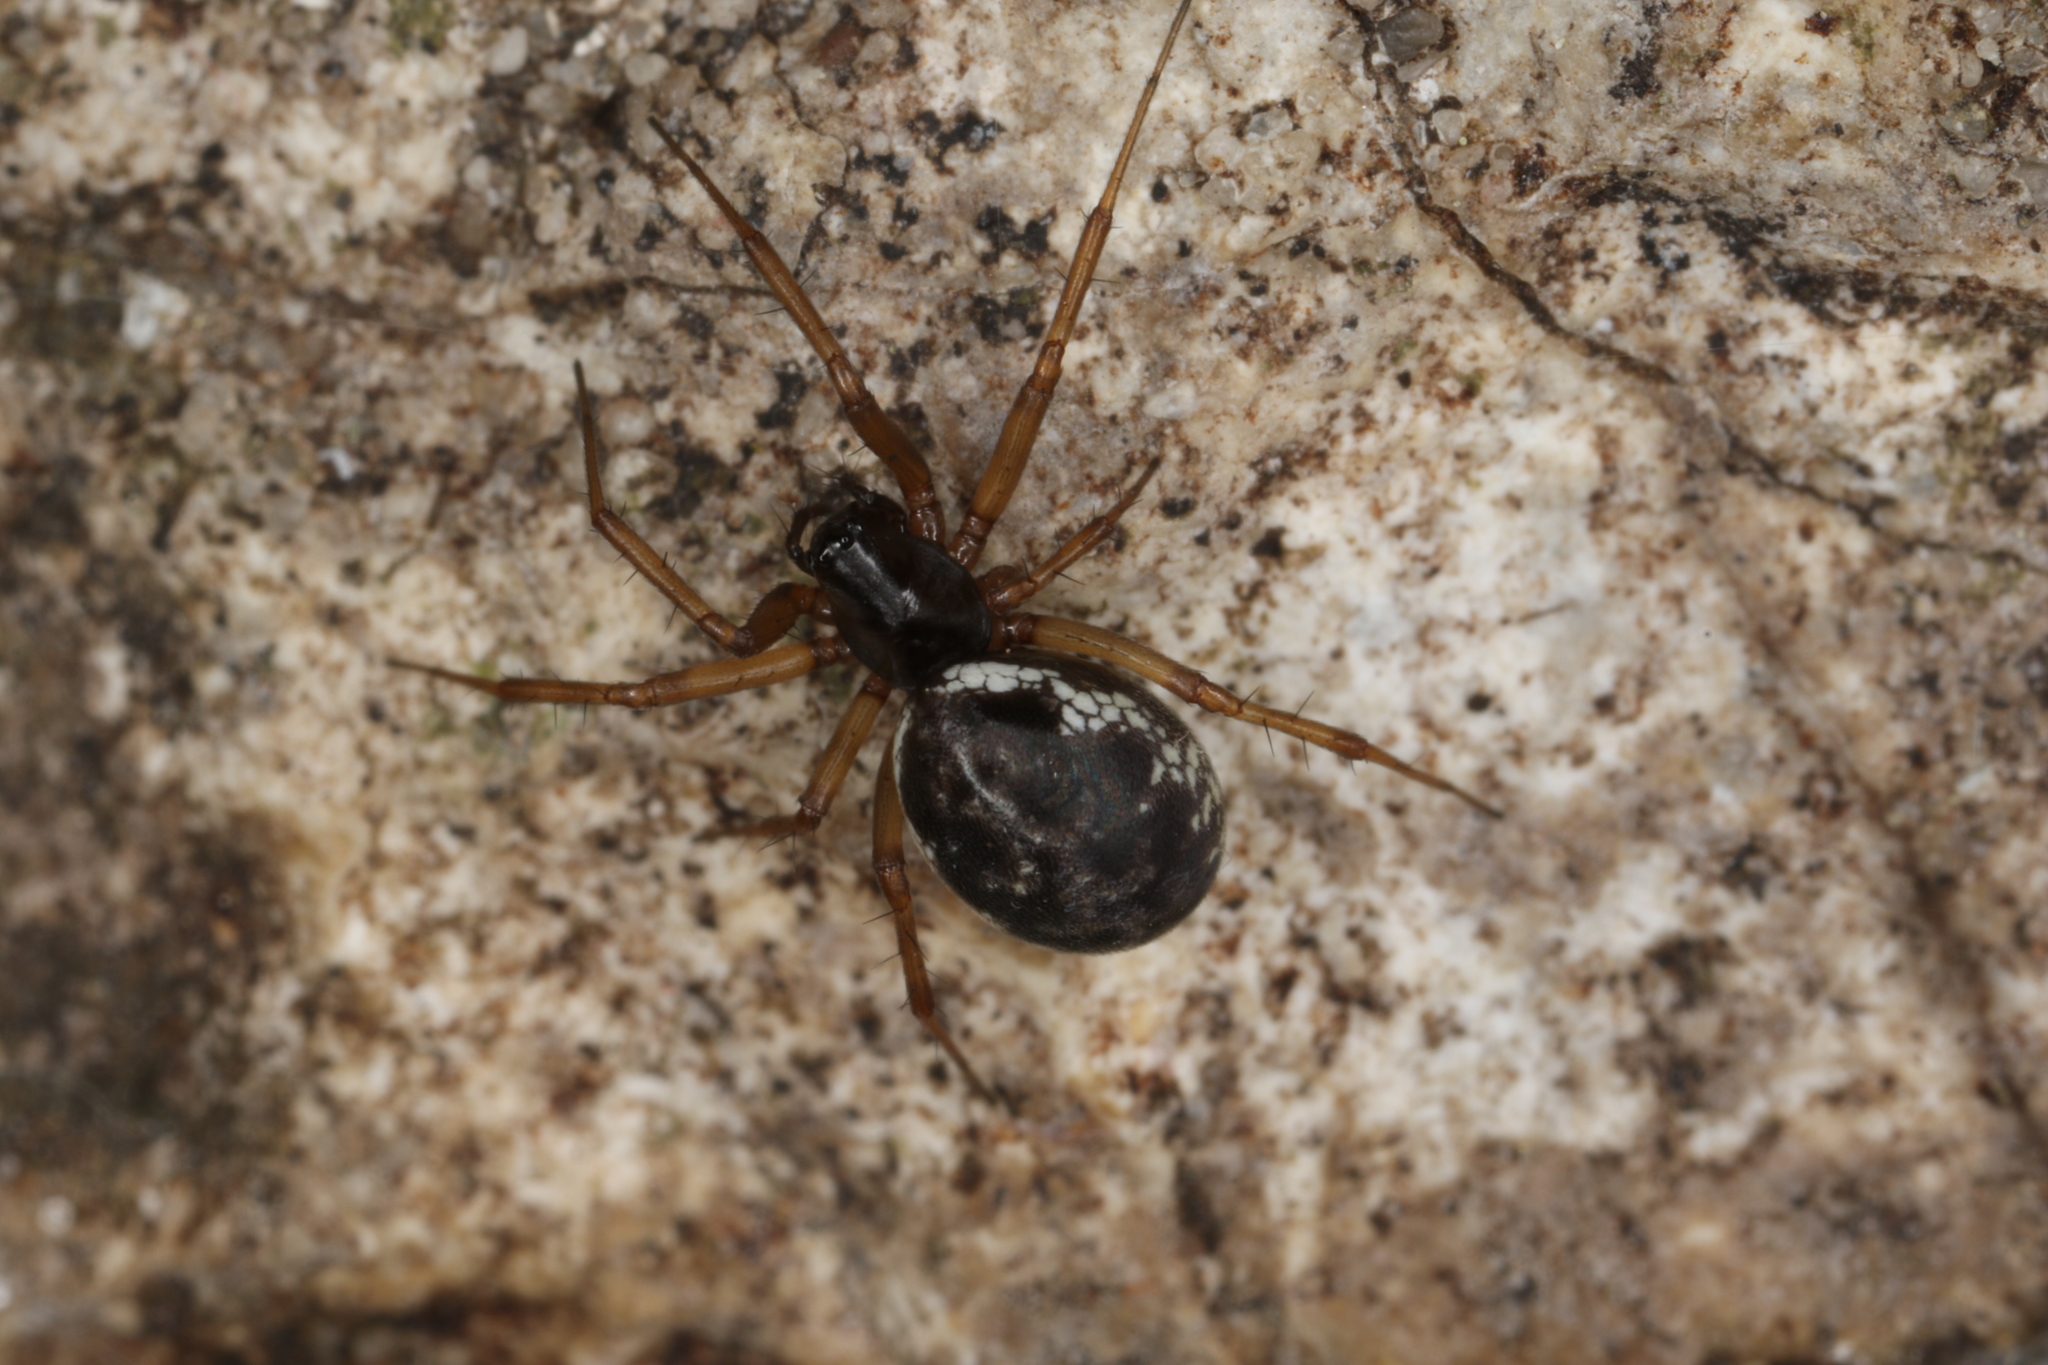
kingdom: Animalia
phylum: Arthropoda
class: Arachnida
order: Araneae
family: Linyphiidae
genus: Neriene
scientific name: Neriene clathrata
